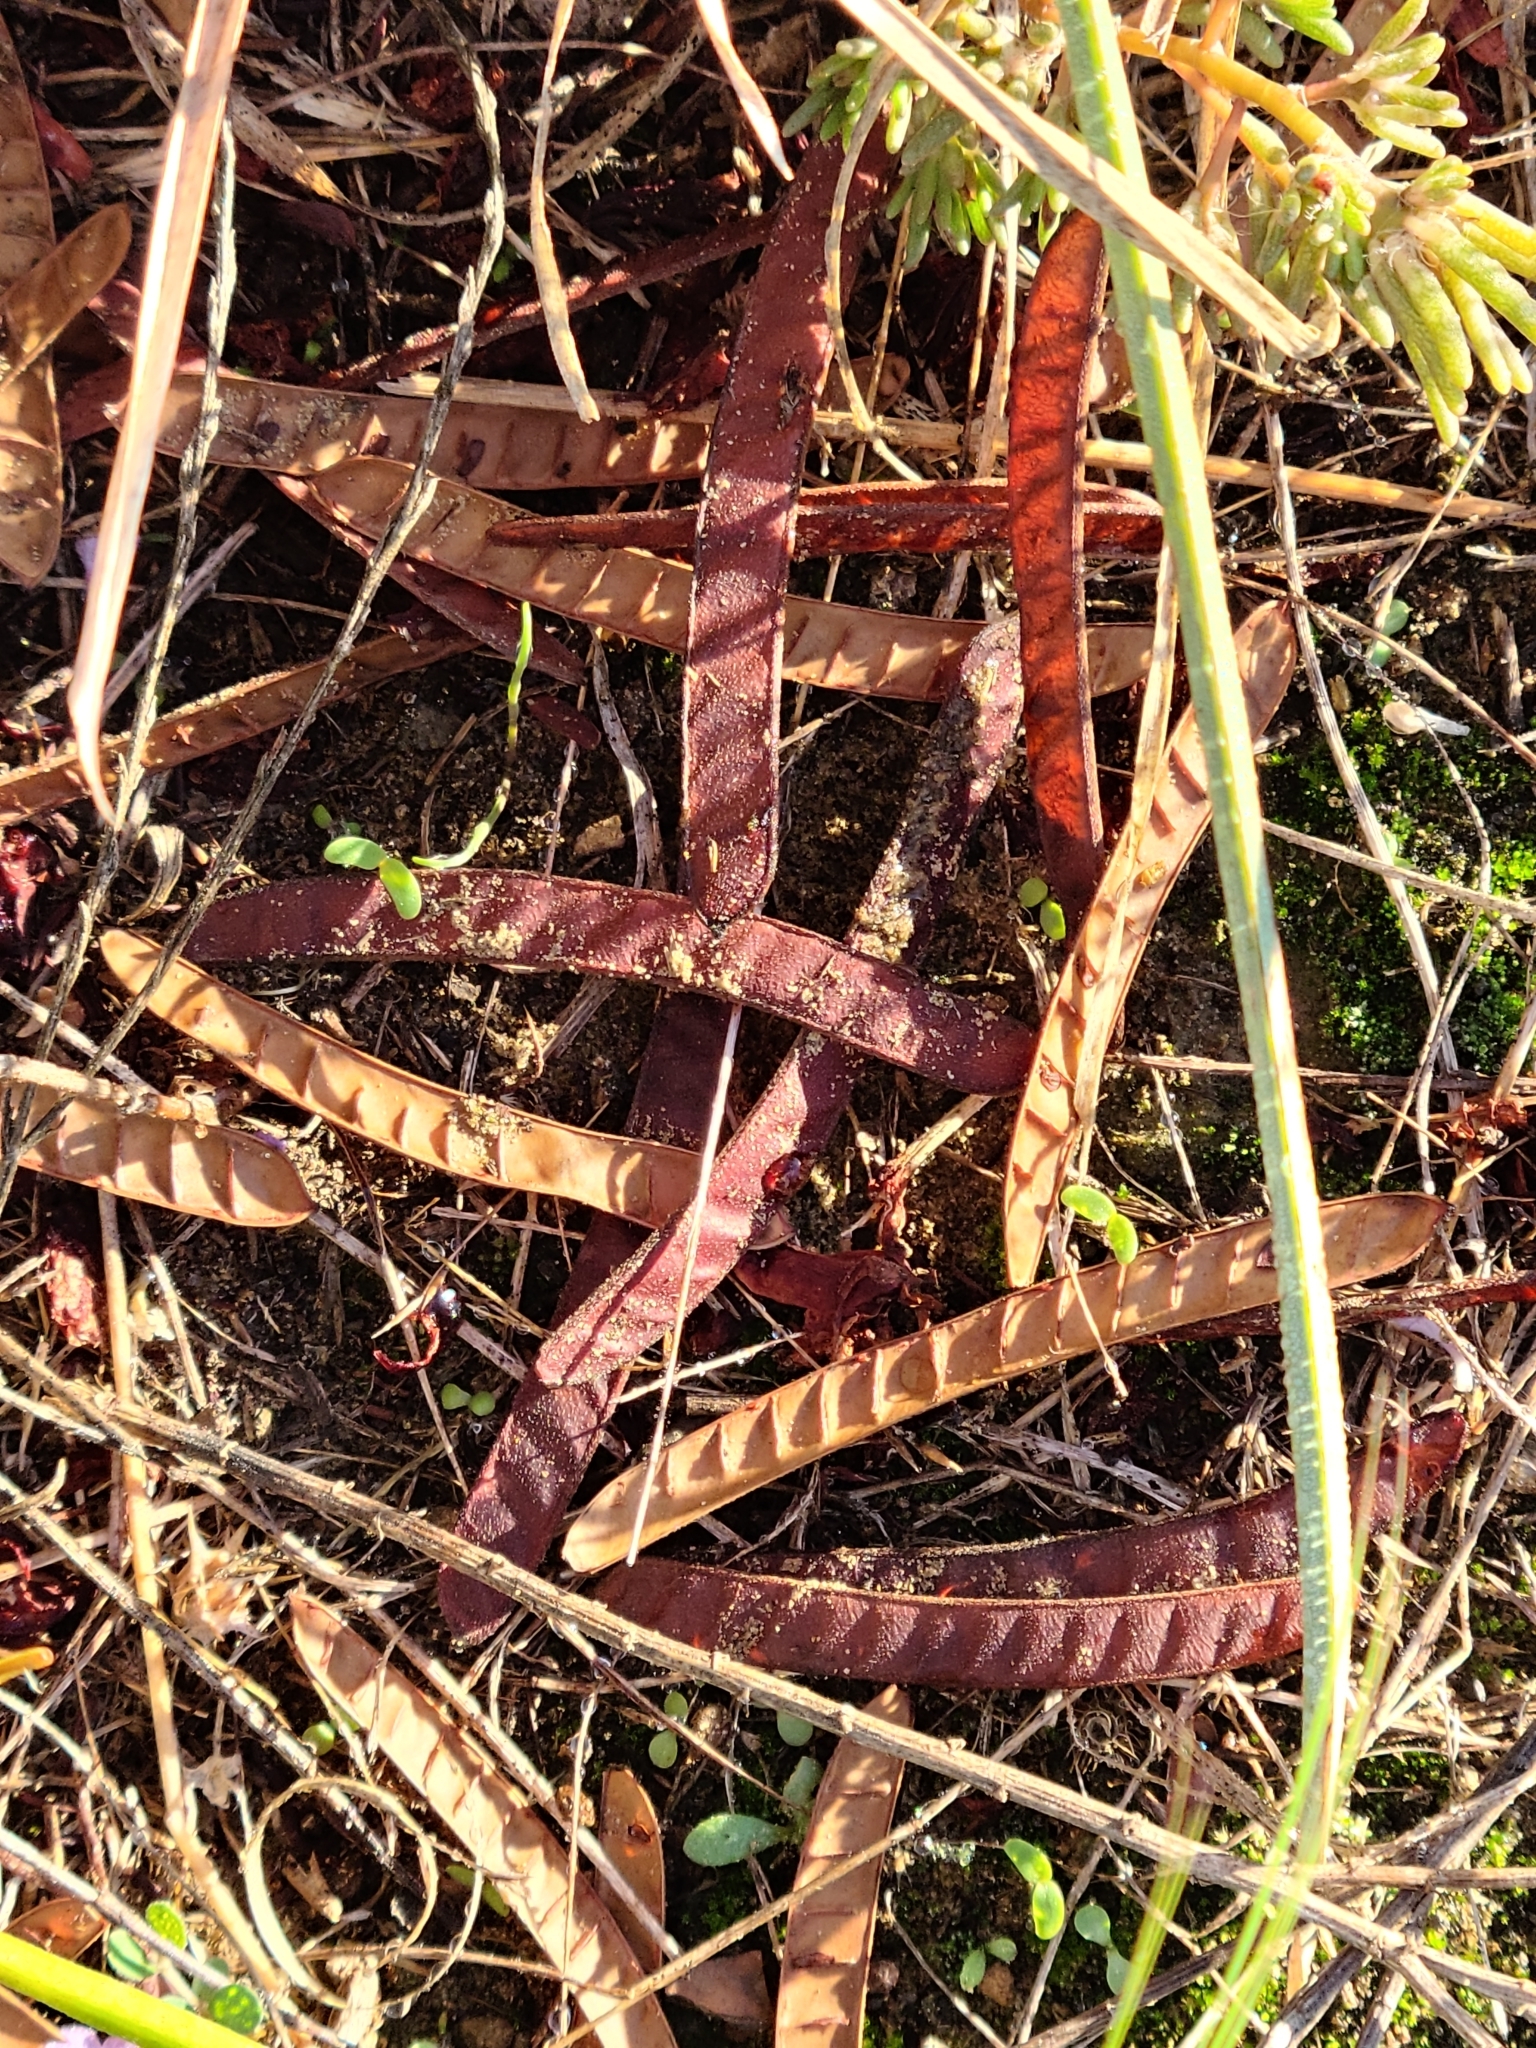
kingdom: Plantae
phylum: Tracheophyta
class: Magnoliopsida
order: Fabales
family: Fabaceae
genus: Chamaecrista
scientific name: Chamaecrista fasciculata
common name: Golden cassia
